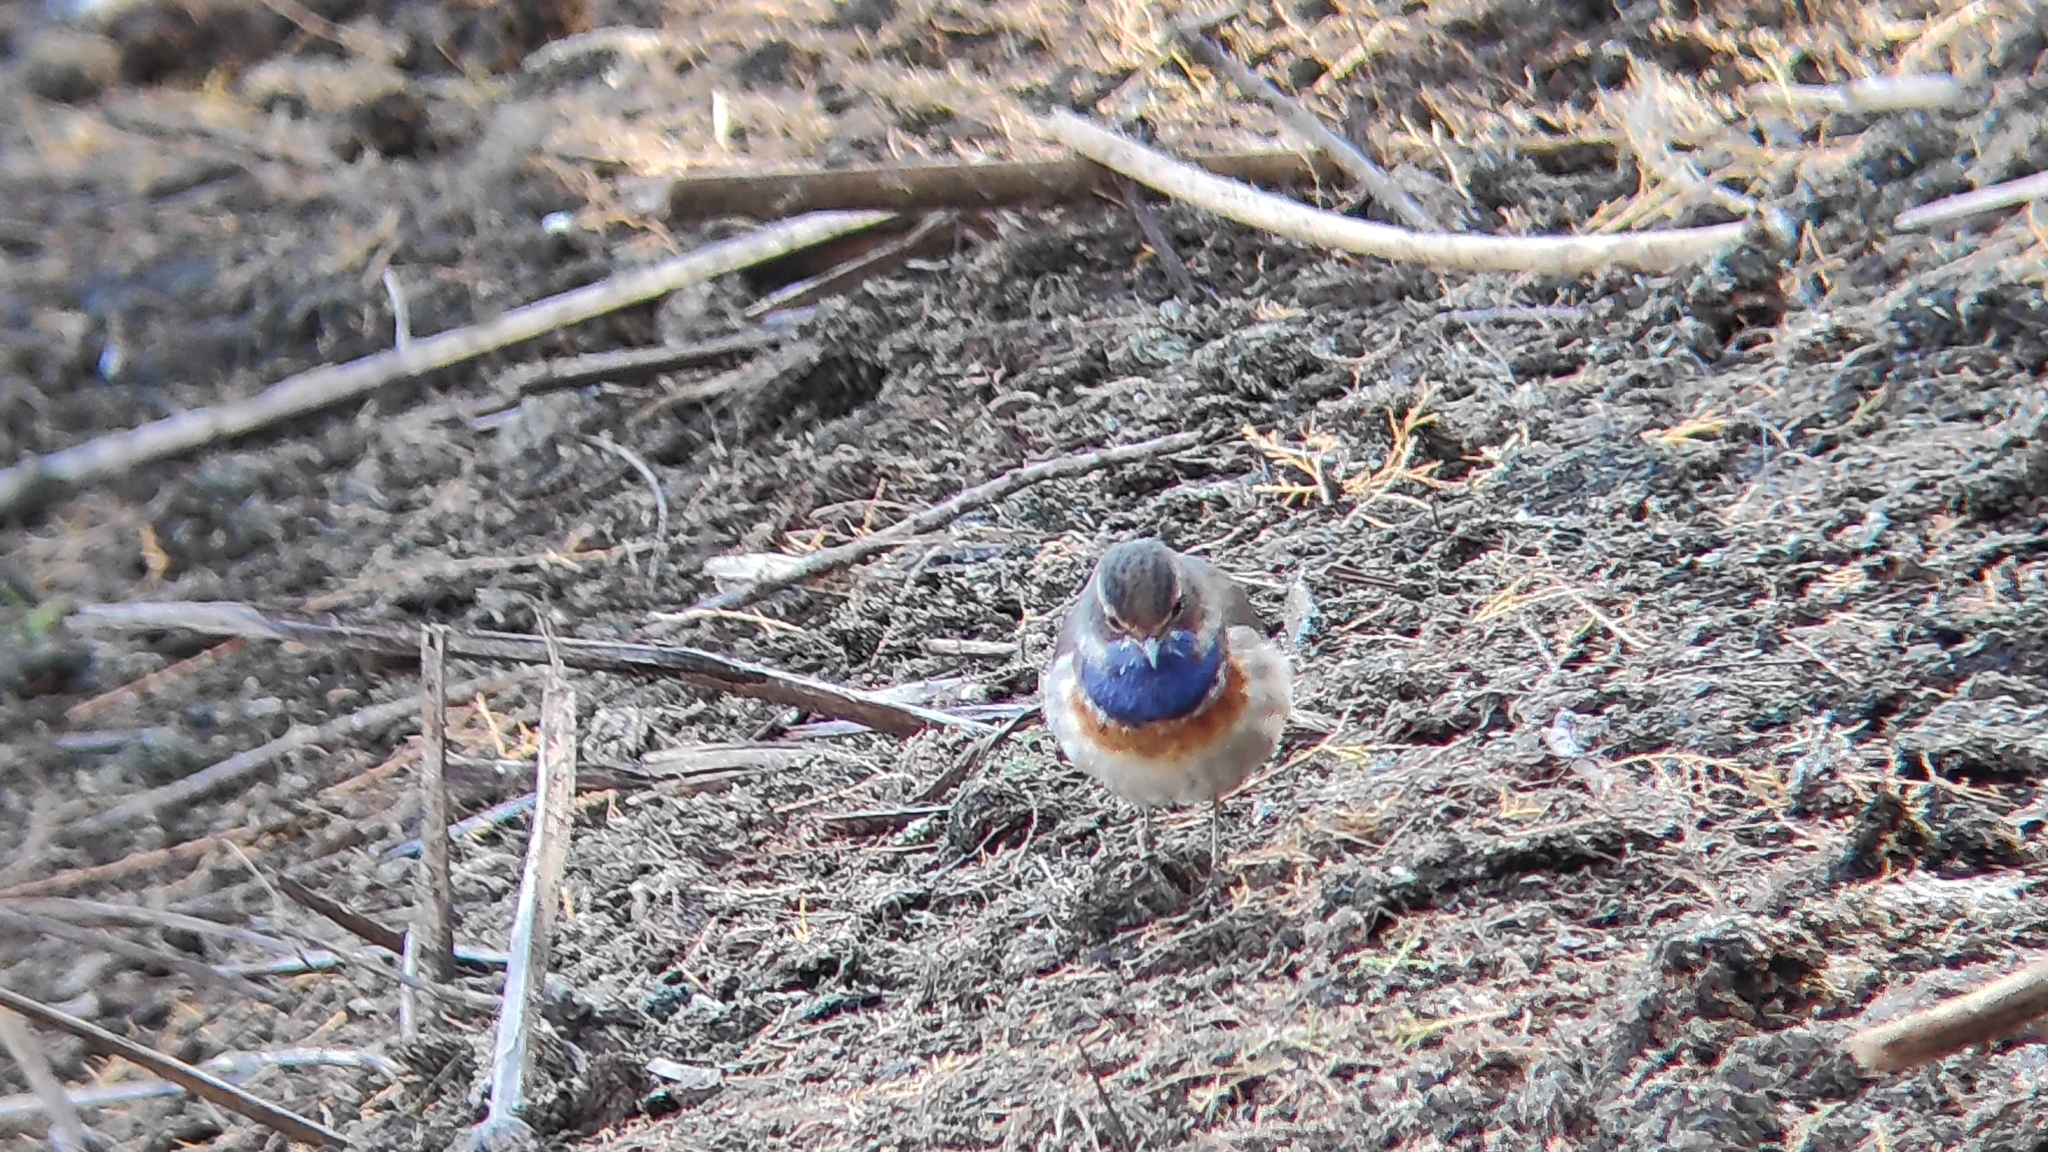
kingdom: Animalia
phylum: Chordata
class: Aves
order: Passeriformes
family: Muscicapidae
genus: Luscinia
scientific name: Luscinia svecica
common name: Bluethroat
